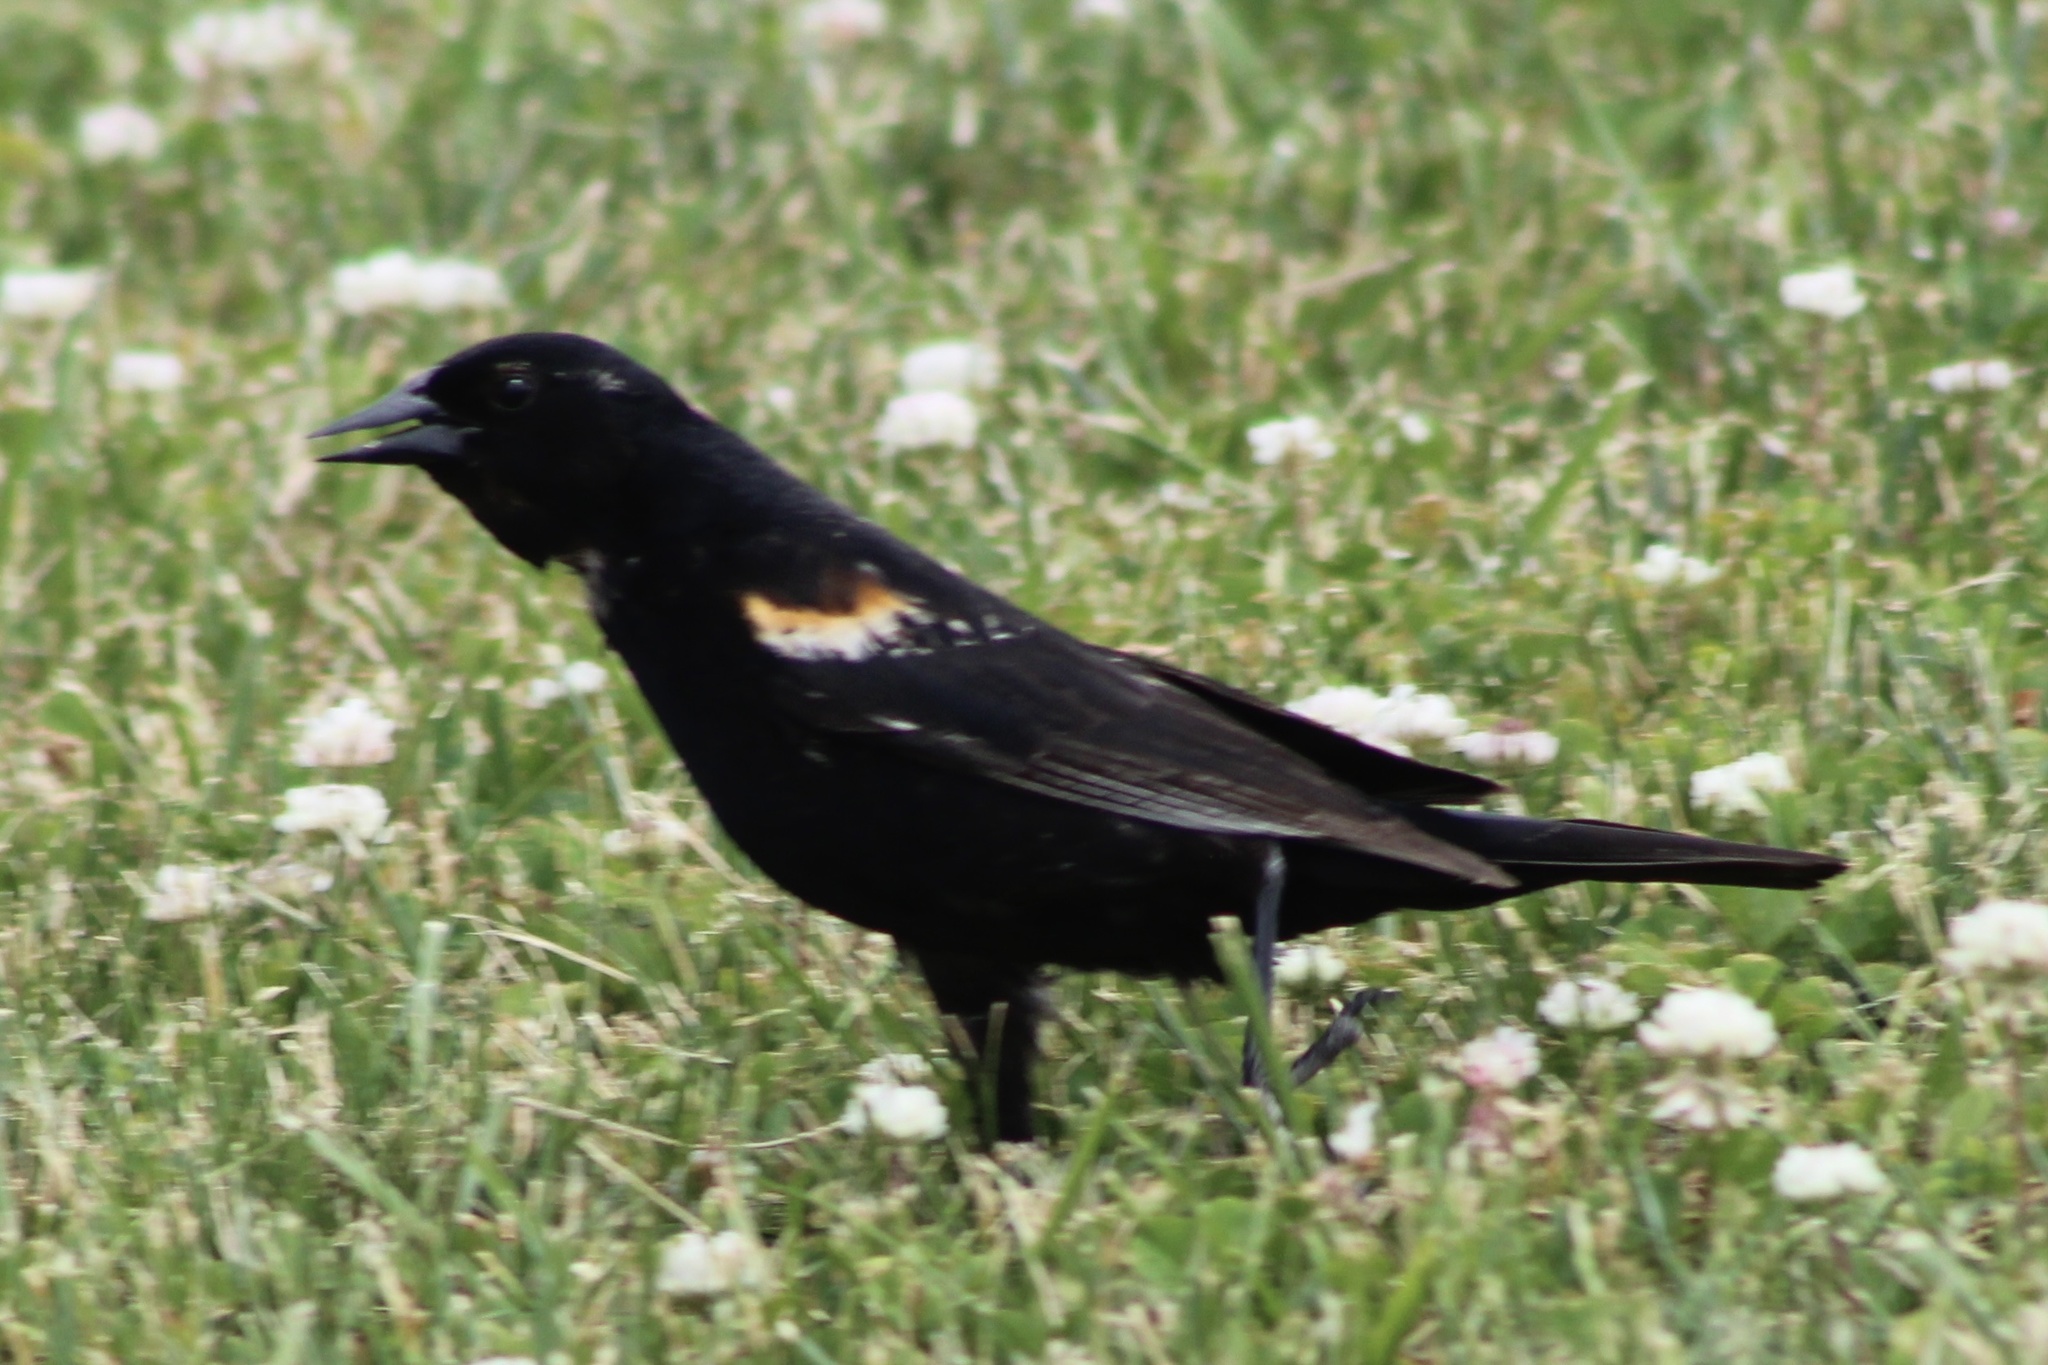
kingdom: Animalia
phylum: Chordata
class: Aves
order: Passeriformes
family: Icteridae
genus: Agelaius
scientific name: Agelaius phoeniceus
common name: Red-winged blackbird
